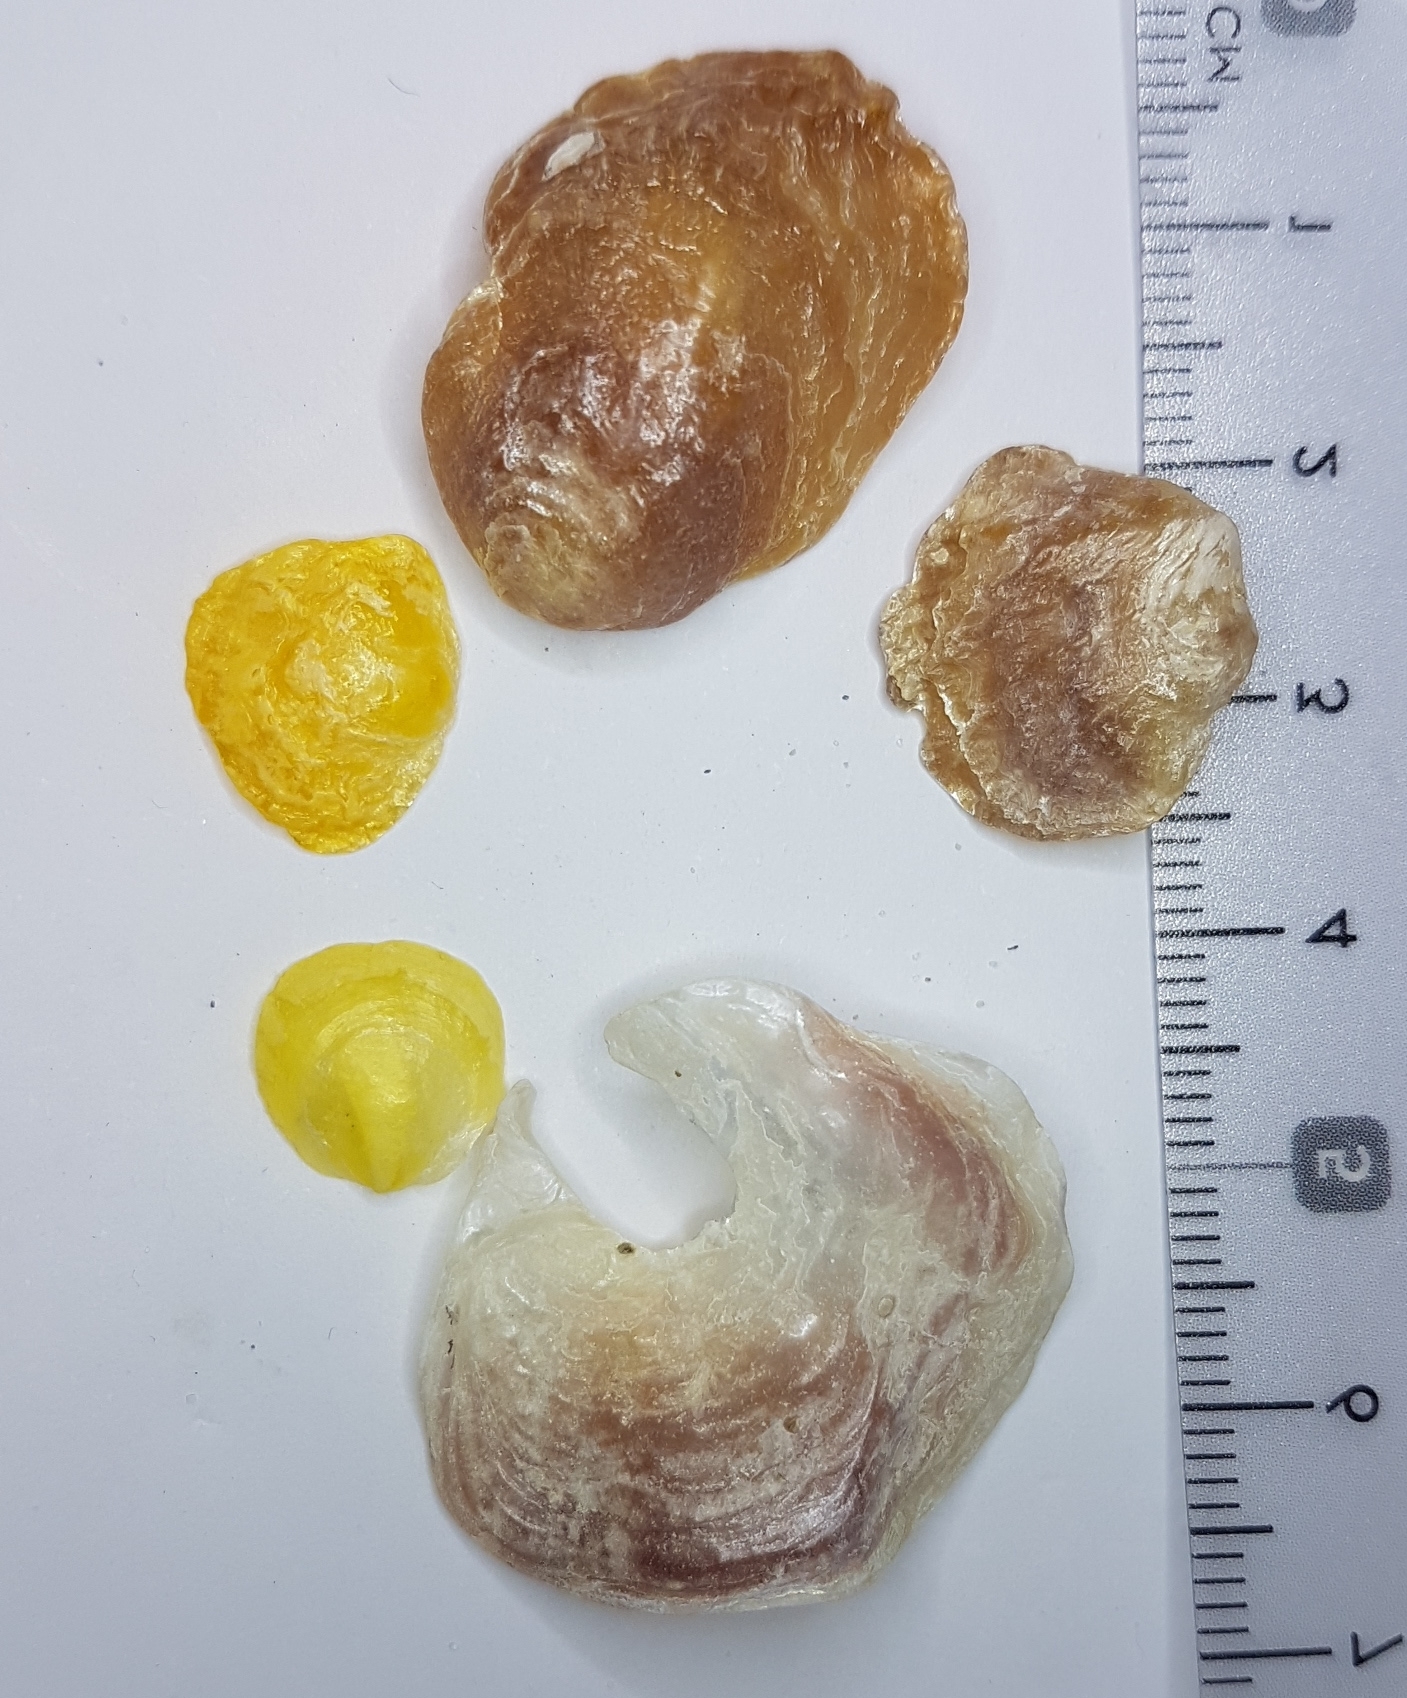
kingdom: Animalia
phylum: Mollusca
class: Bivalvia
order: Pectinida
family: Anomiidae
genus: Anomia
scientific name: Anomia ephippium
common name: Saddle oyster
